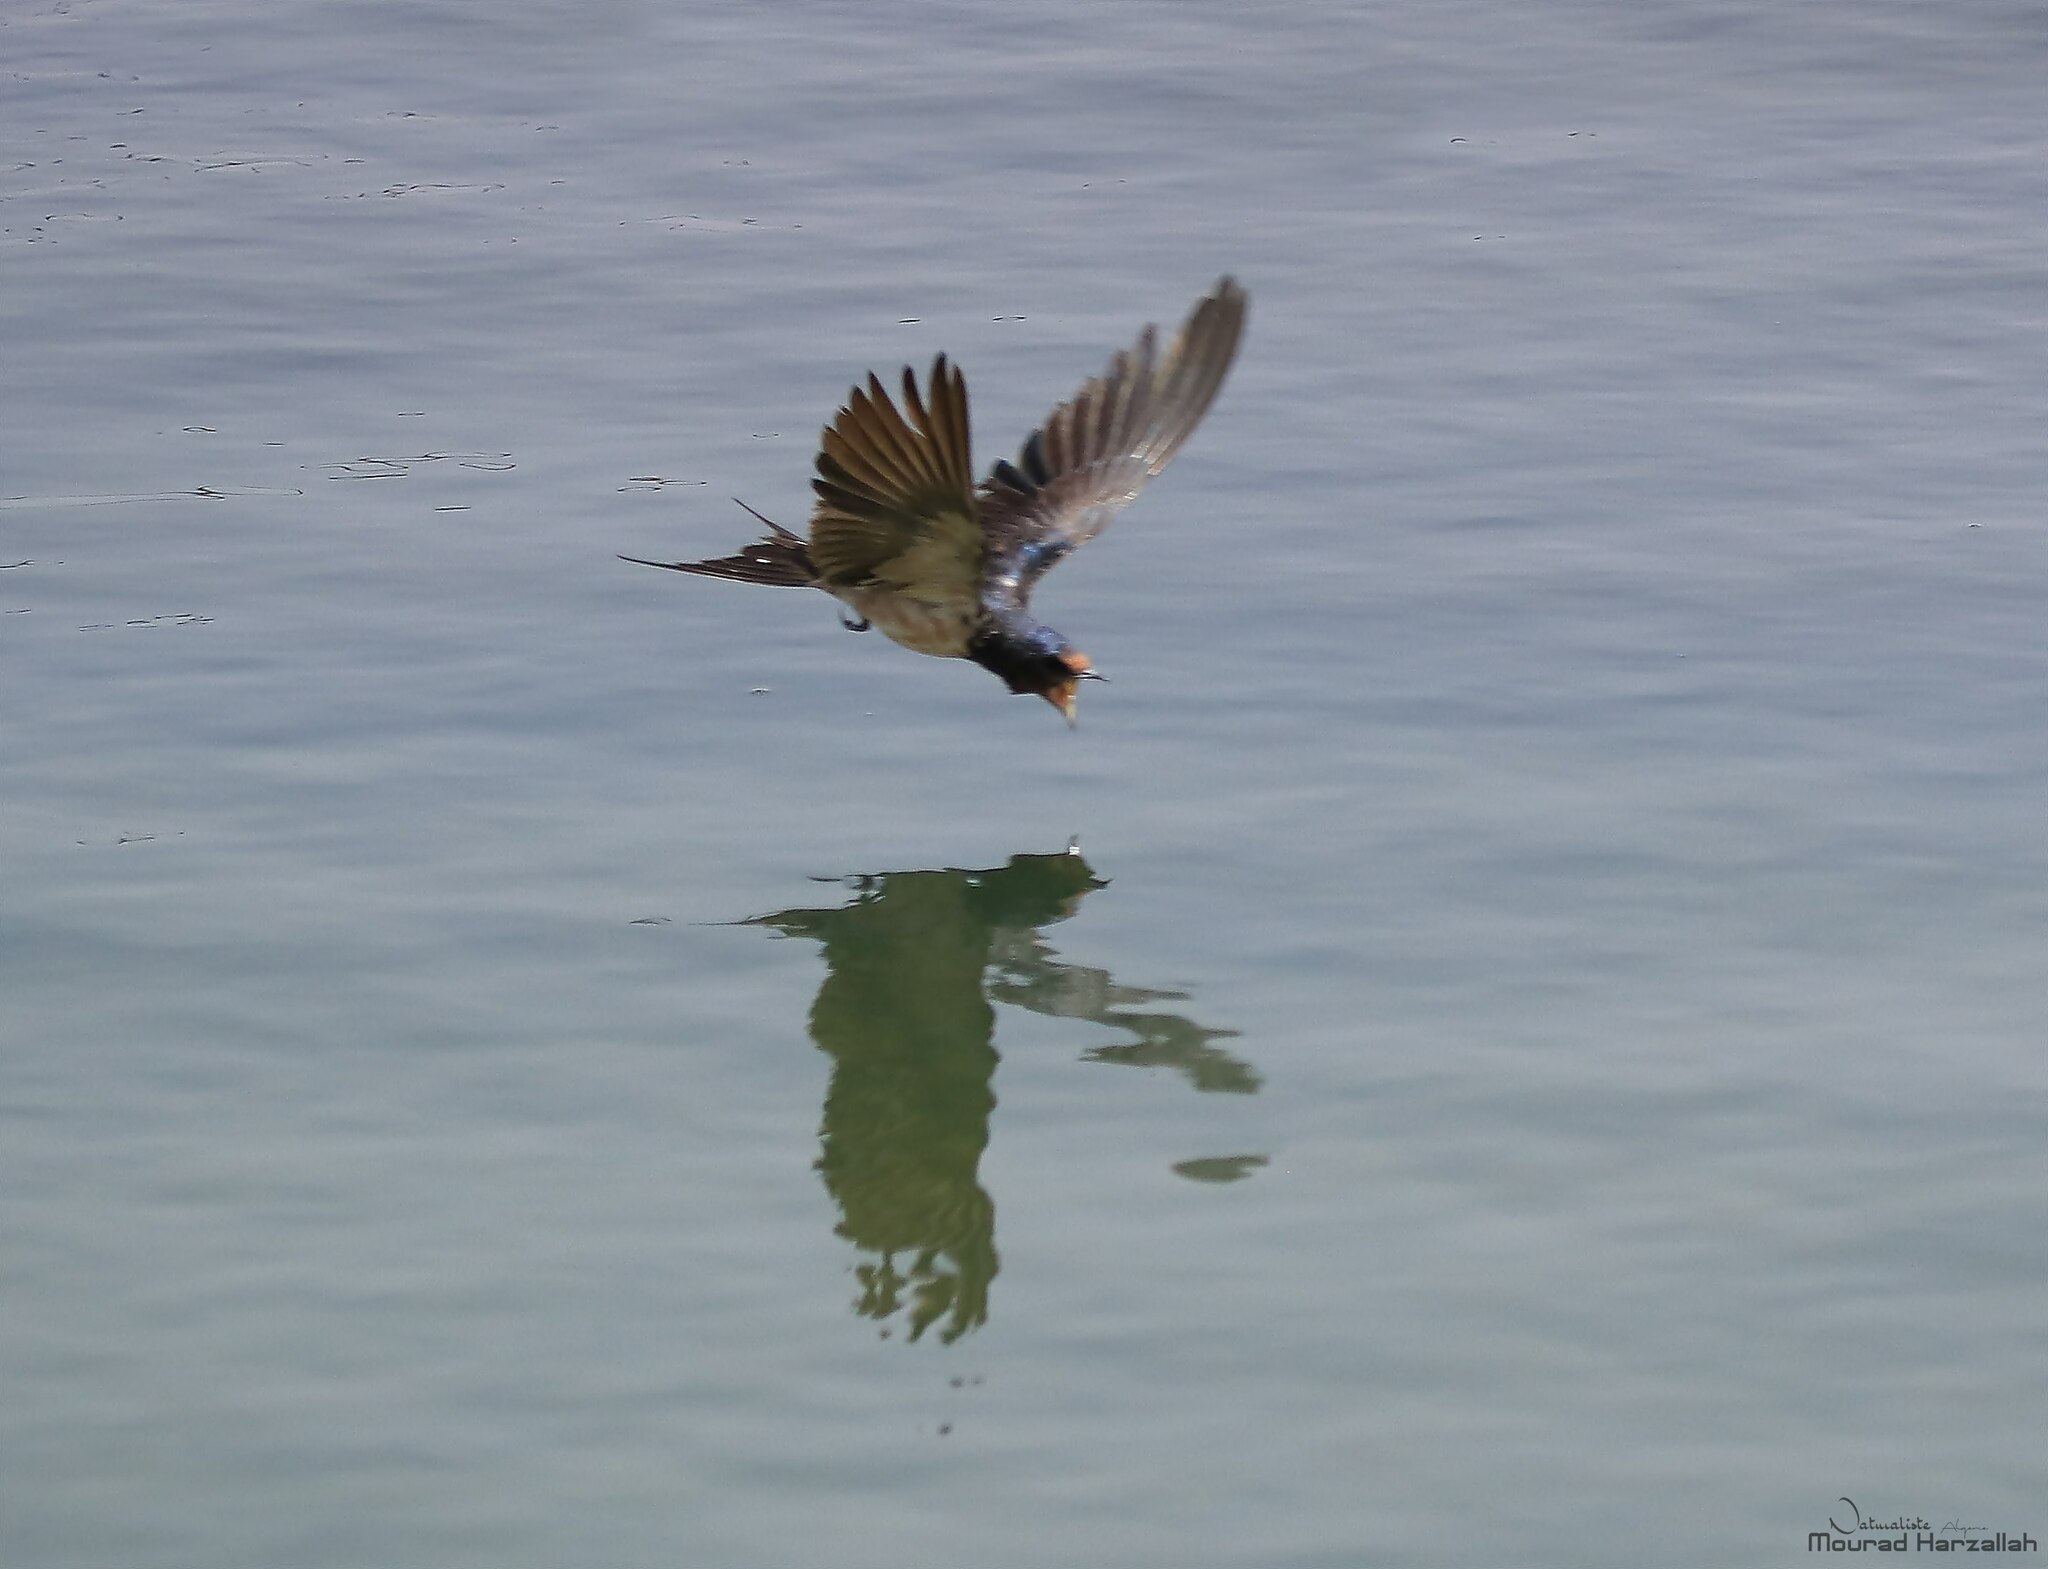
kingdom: Animalia
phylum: Chordata
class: Aves
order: Passeriformes
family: Hirundinidae
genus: Hirundo
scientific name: Hirundo rustica
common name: Barn swallow
